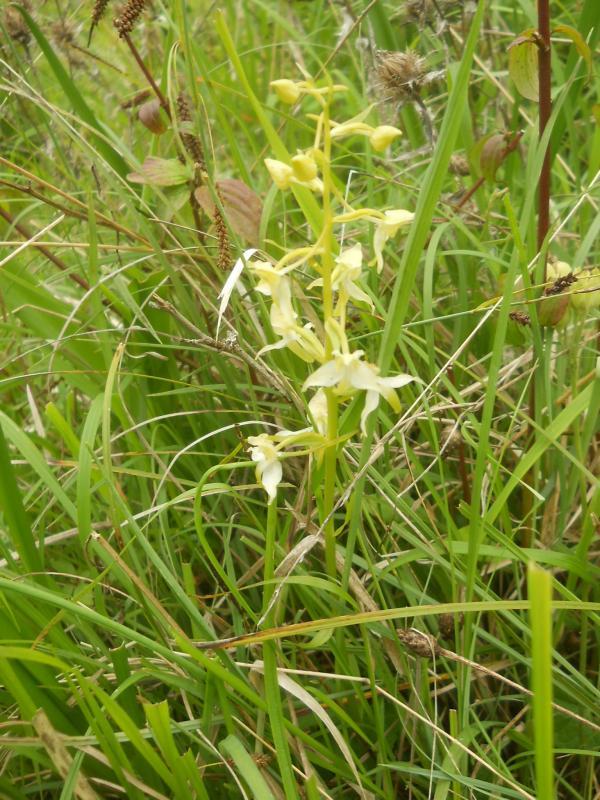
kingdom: Plantae
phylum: Tracheophyta
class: Liliopsida
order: Asparagales
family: Orchidaceae
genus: Platanthera
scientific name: Platanthera chlorantha
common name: Greater butterfly-orchid
